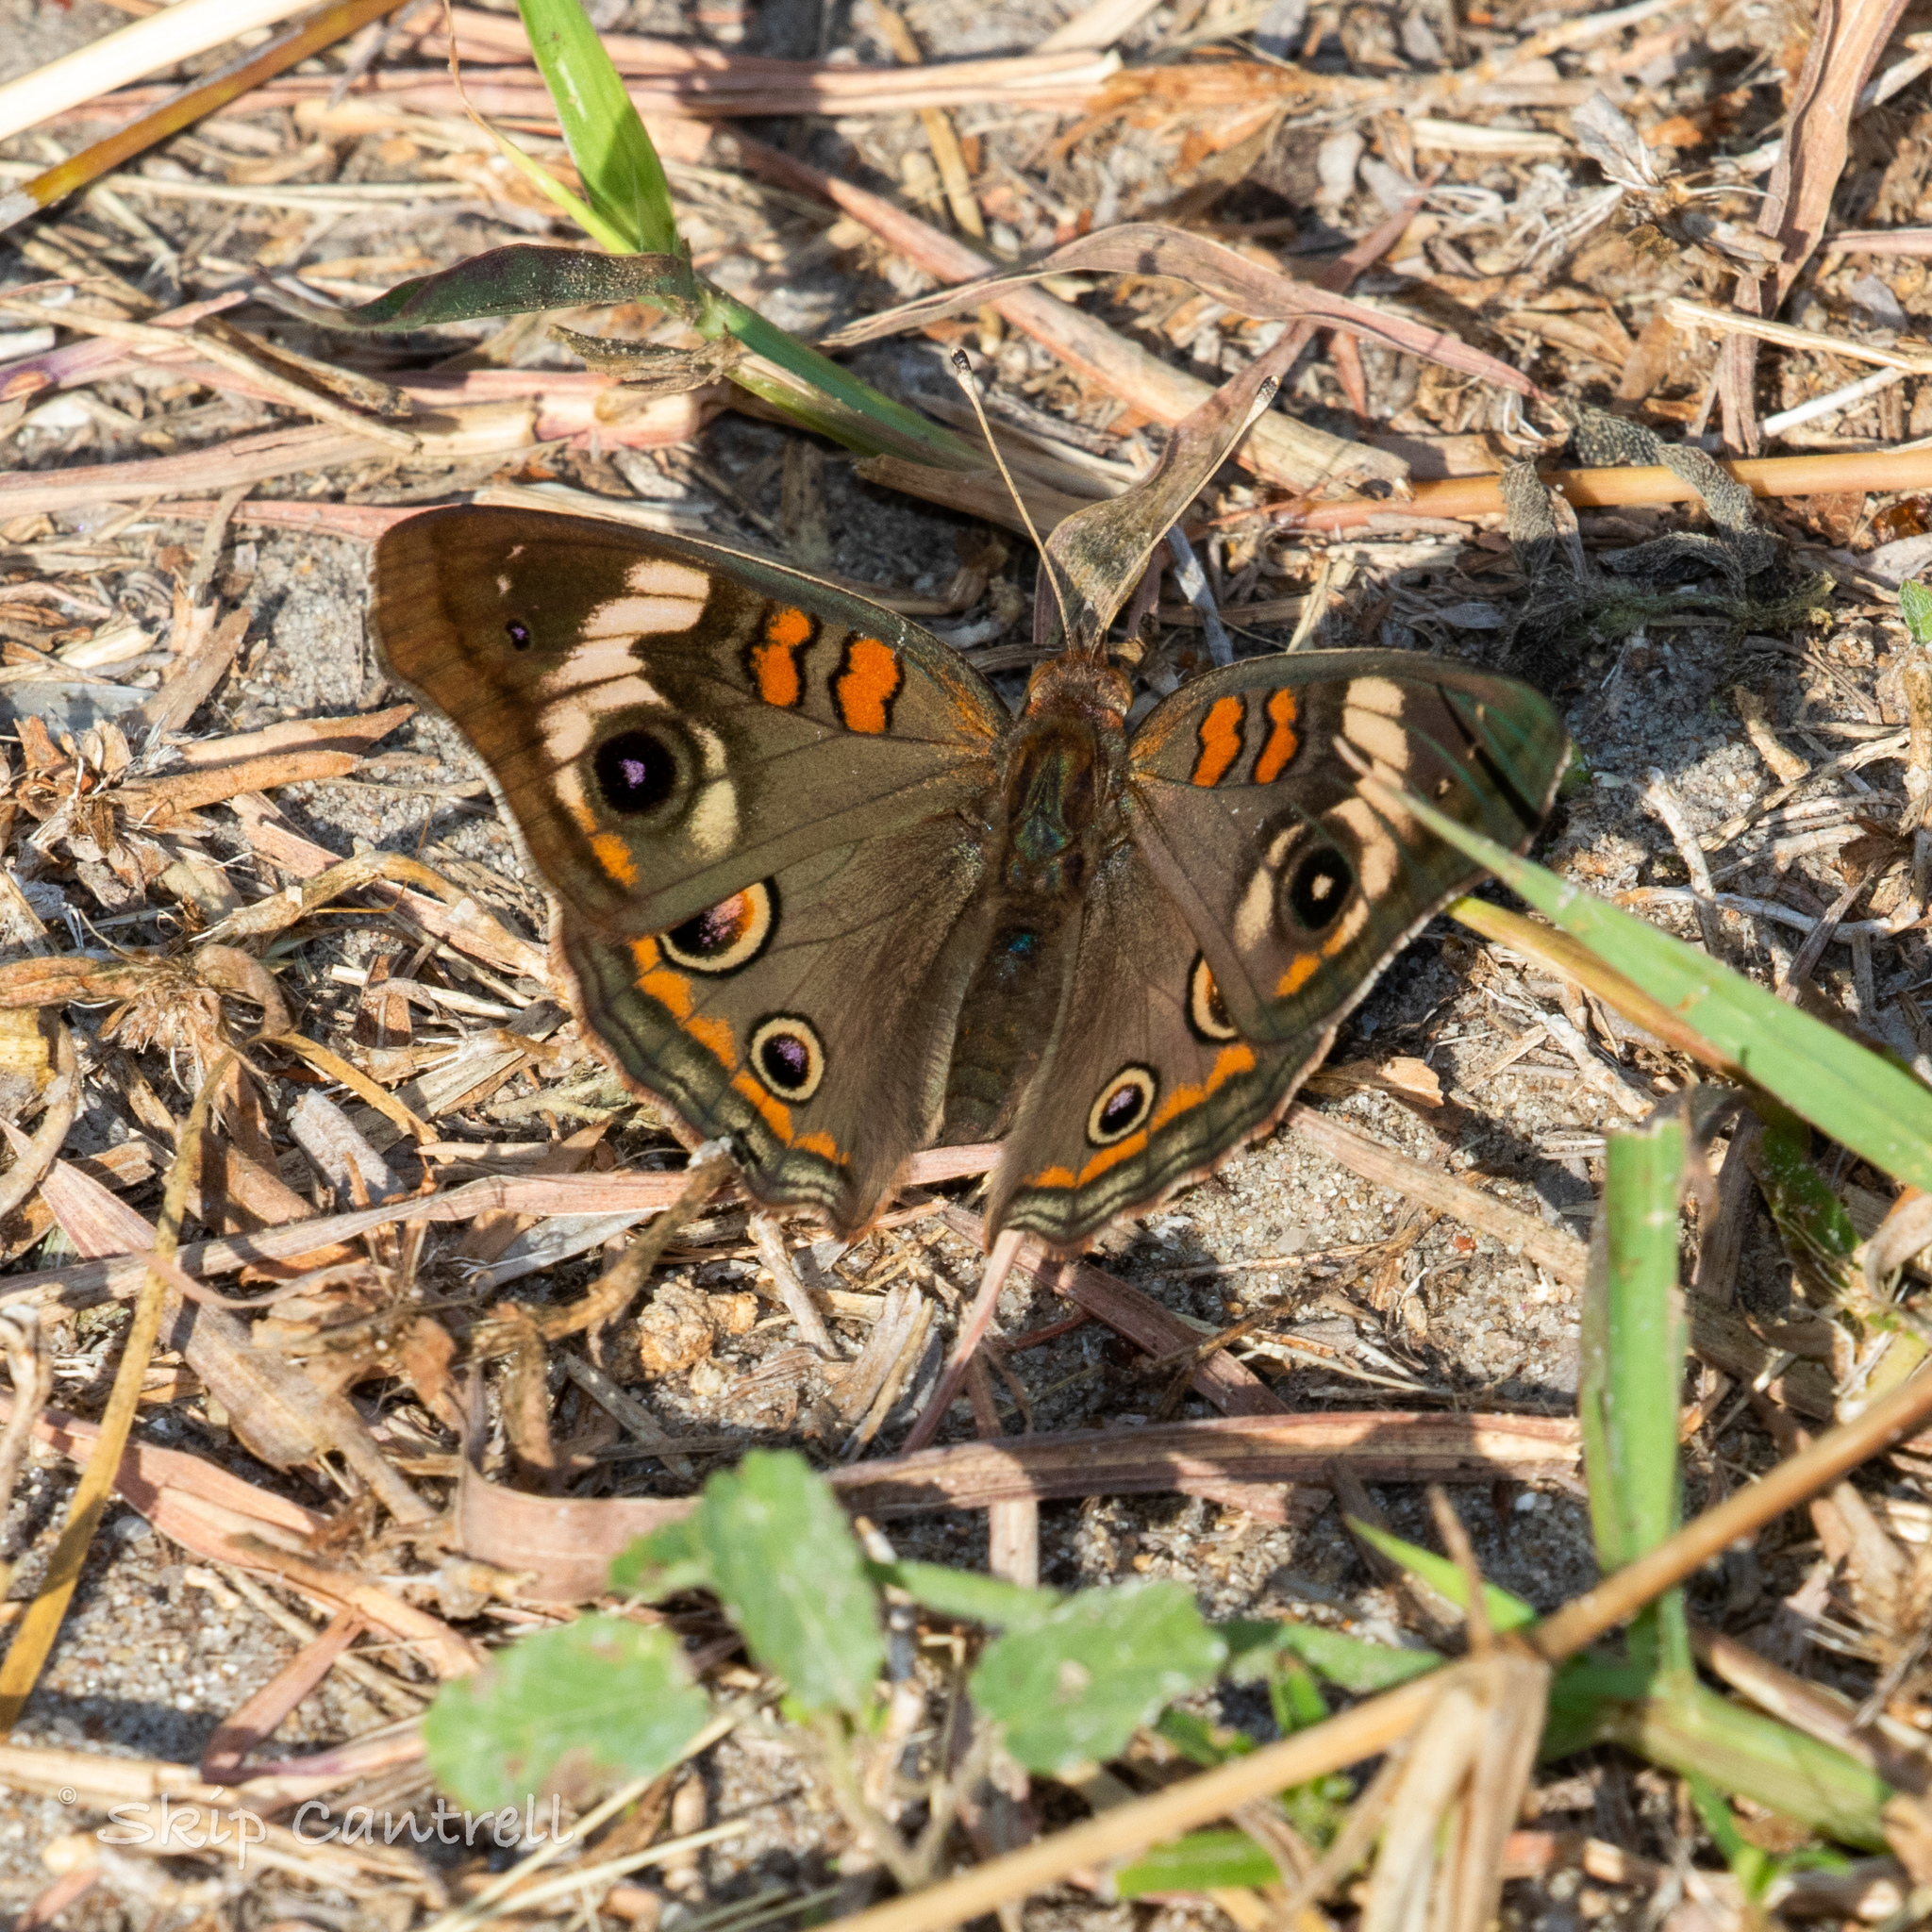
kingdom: Animalia
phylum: Arthropoda
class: Insecta
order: Lepidoptera
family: Nymphalidae
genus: Junonia
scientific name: Junonia coenia
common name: Common buckeye
